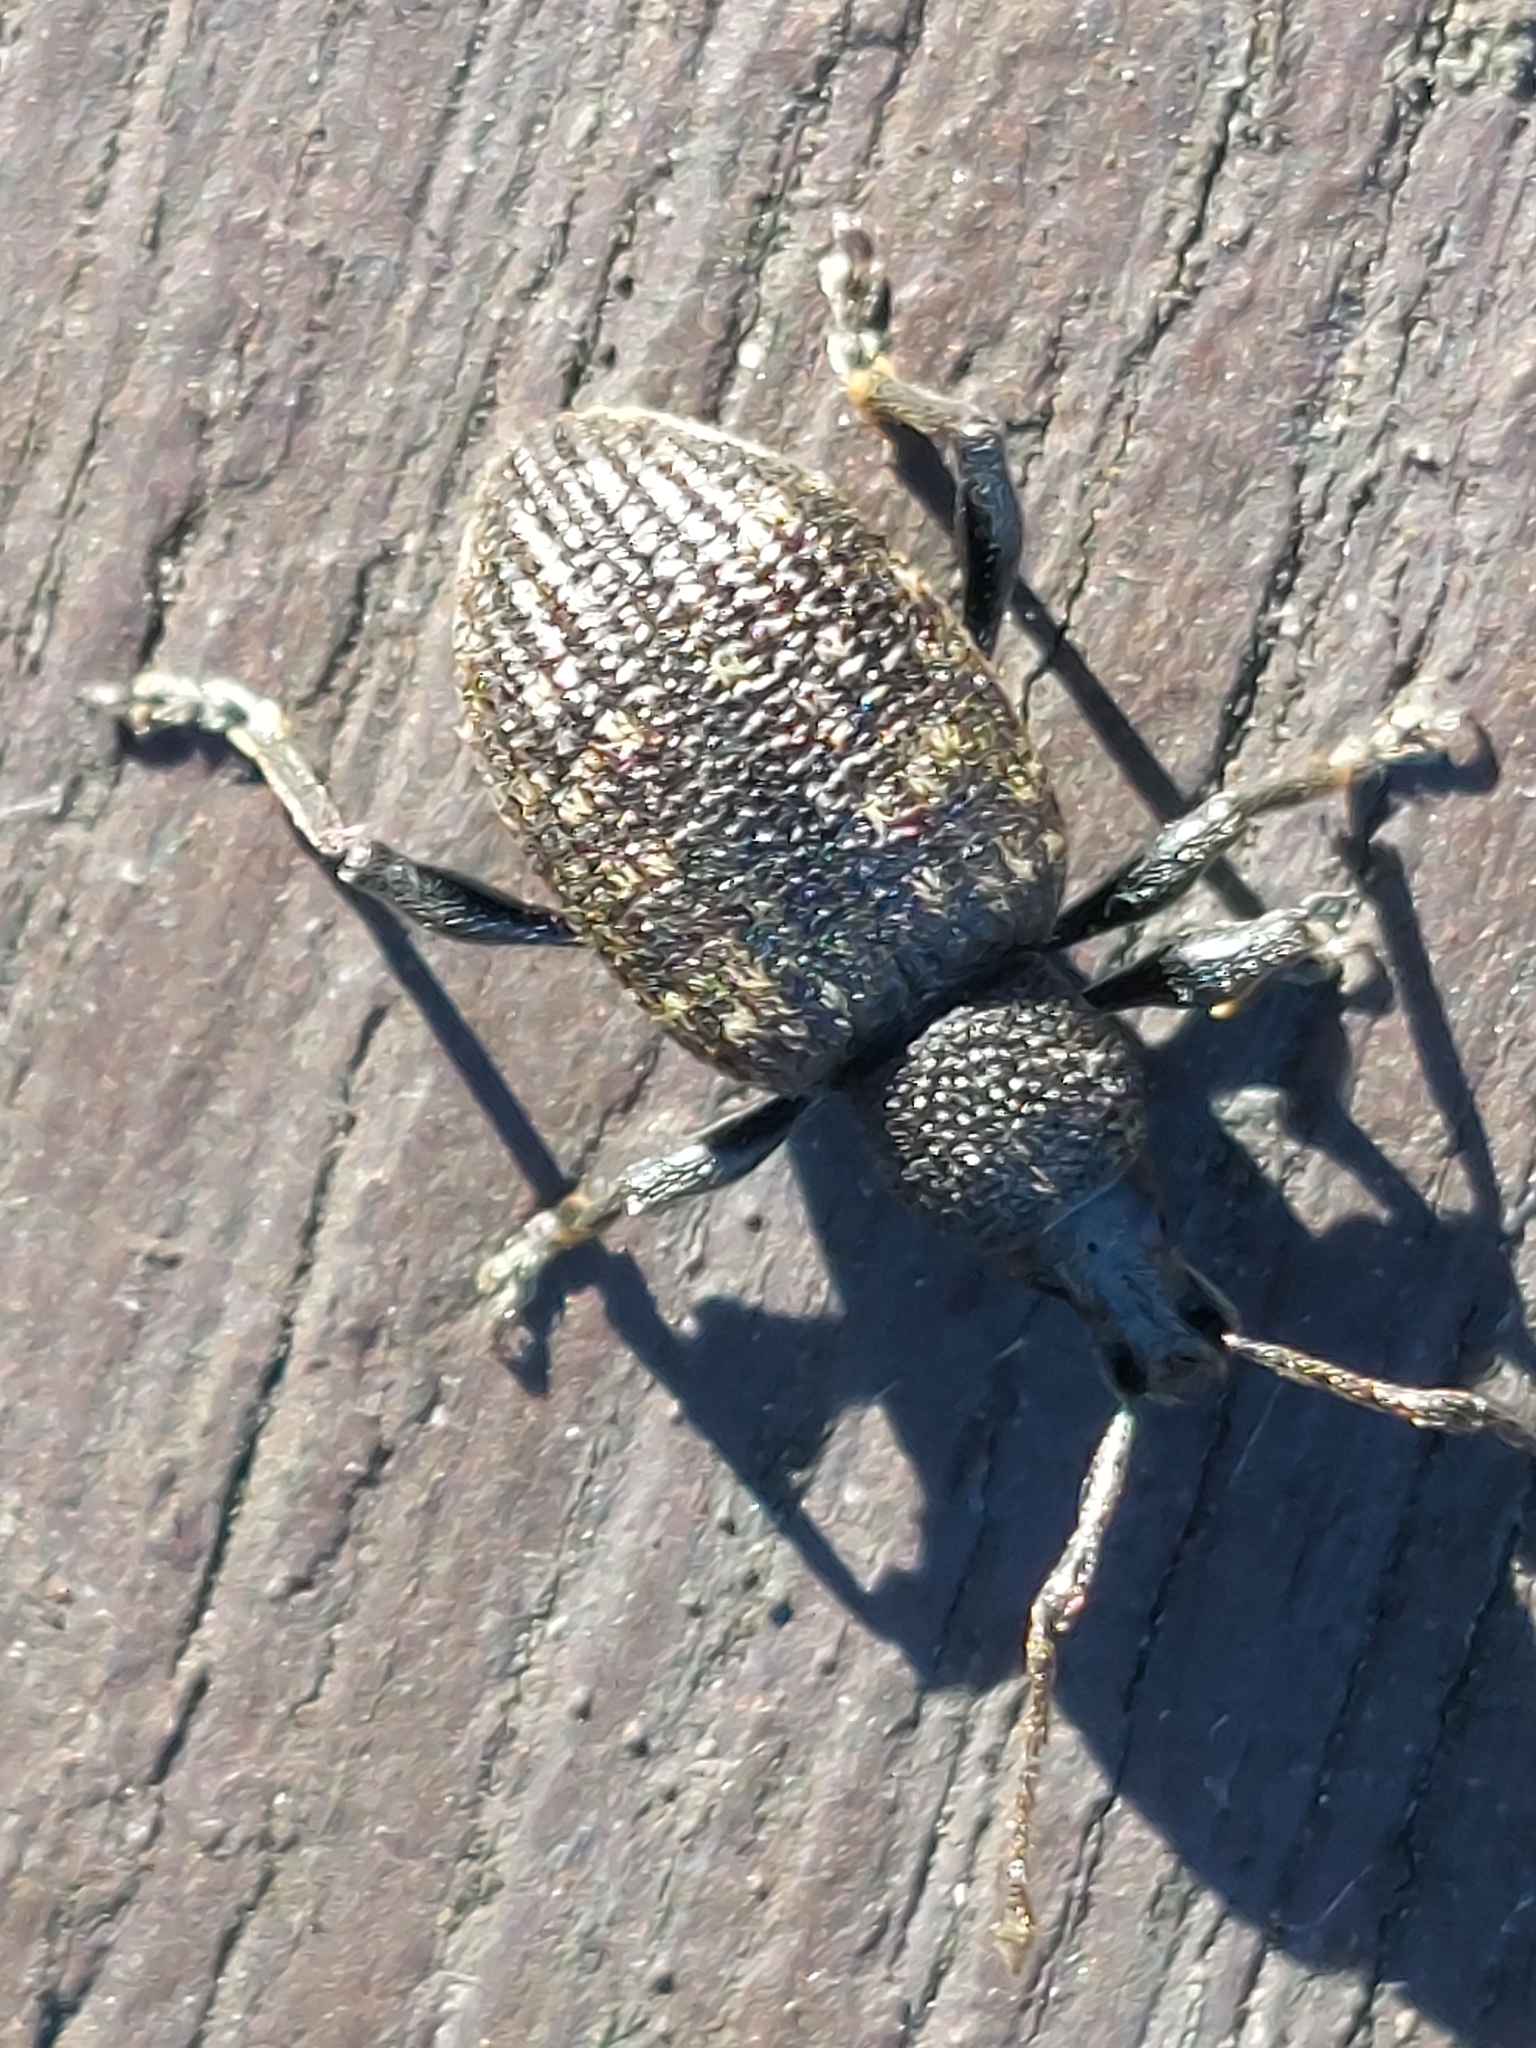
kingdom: Animalia
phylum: Arthropoda
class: Insecta
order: Coleoptera
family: Curculionidae
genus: Otiorhynchus
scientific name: Otiorhynchus sulcatus
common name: Black vine weevil
